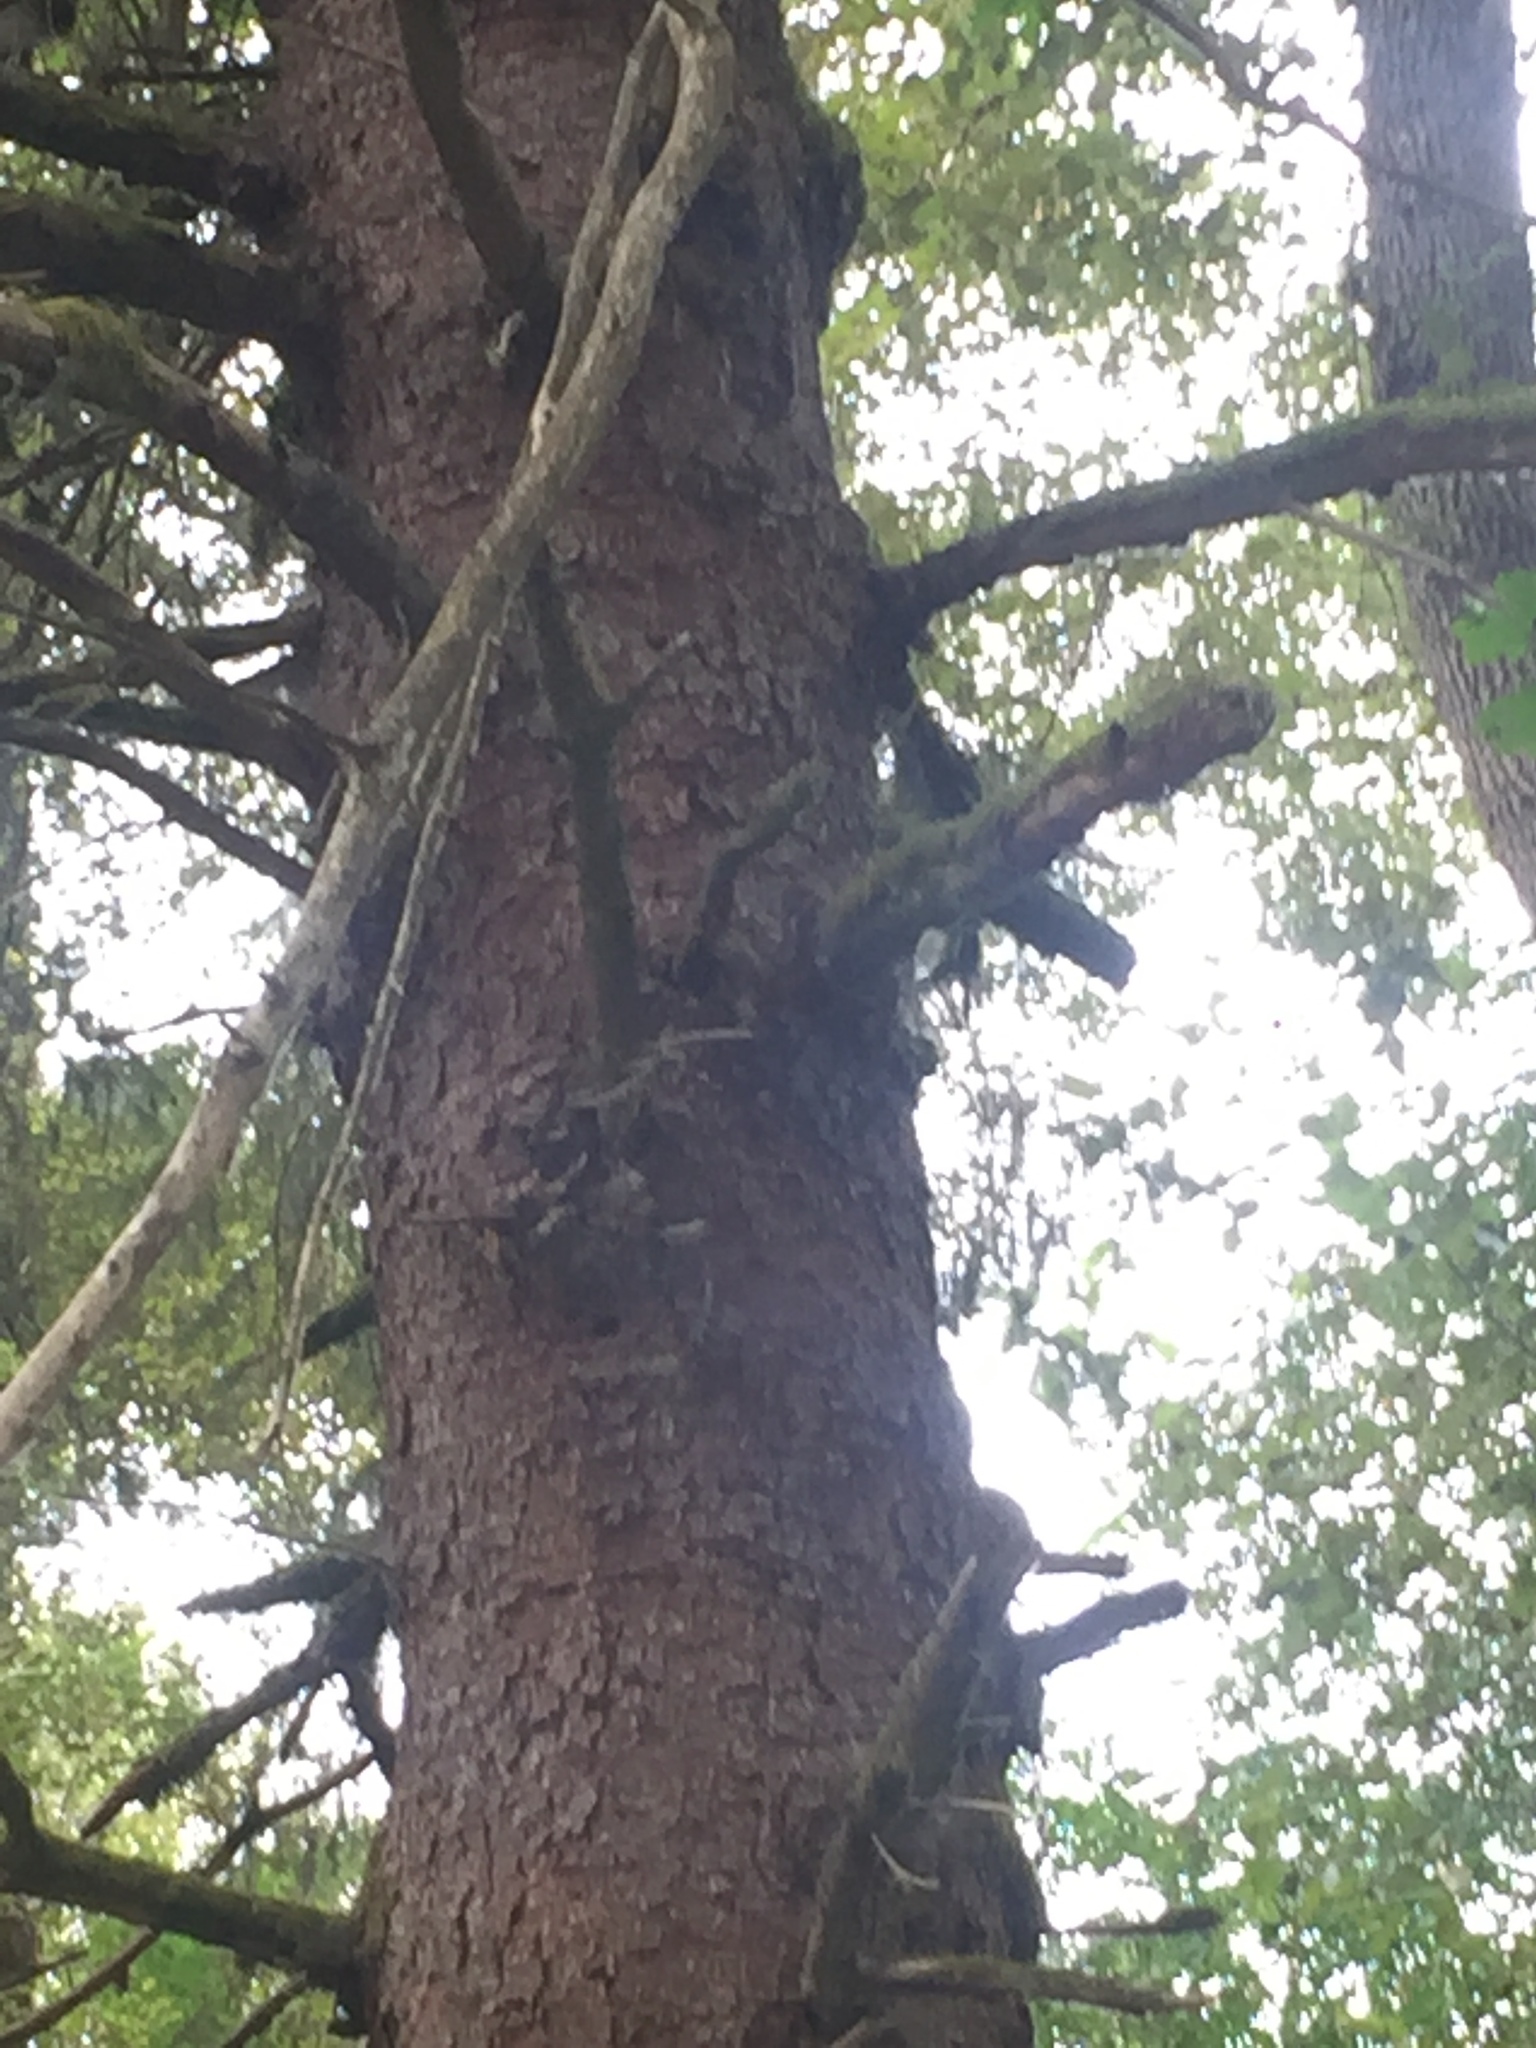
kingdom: Plantae
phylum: Tracheophyta
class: Pinopsida
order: Pinales
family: Pinaceae
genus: Picea
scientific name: Picea sitchensis
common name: Sitka spruce
